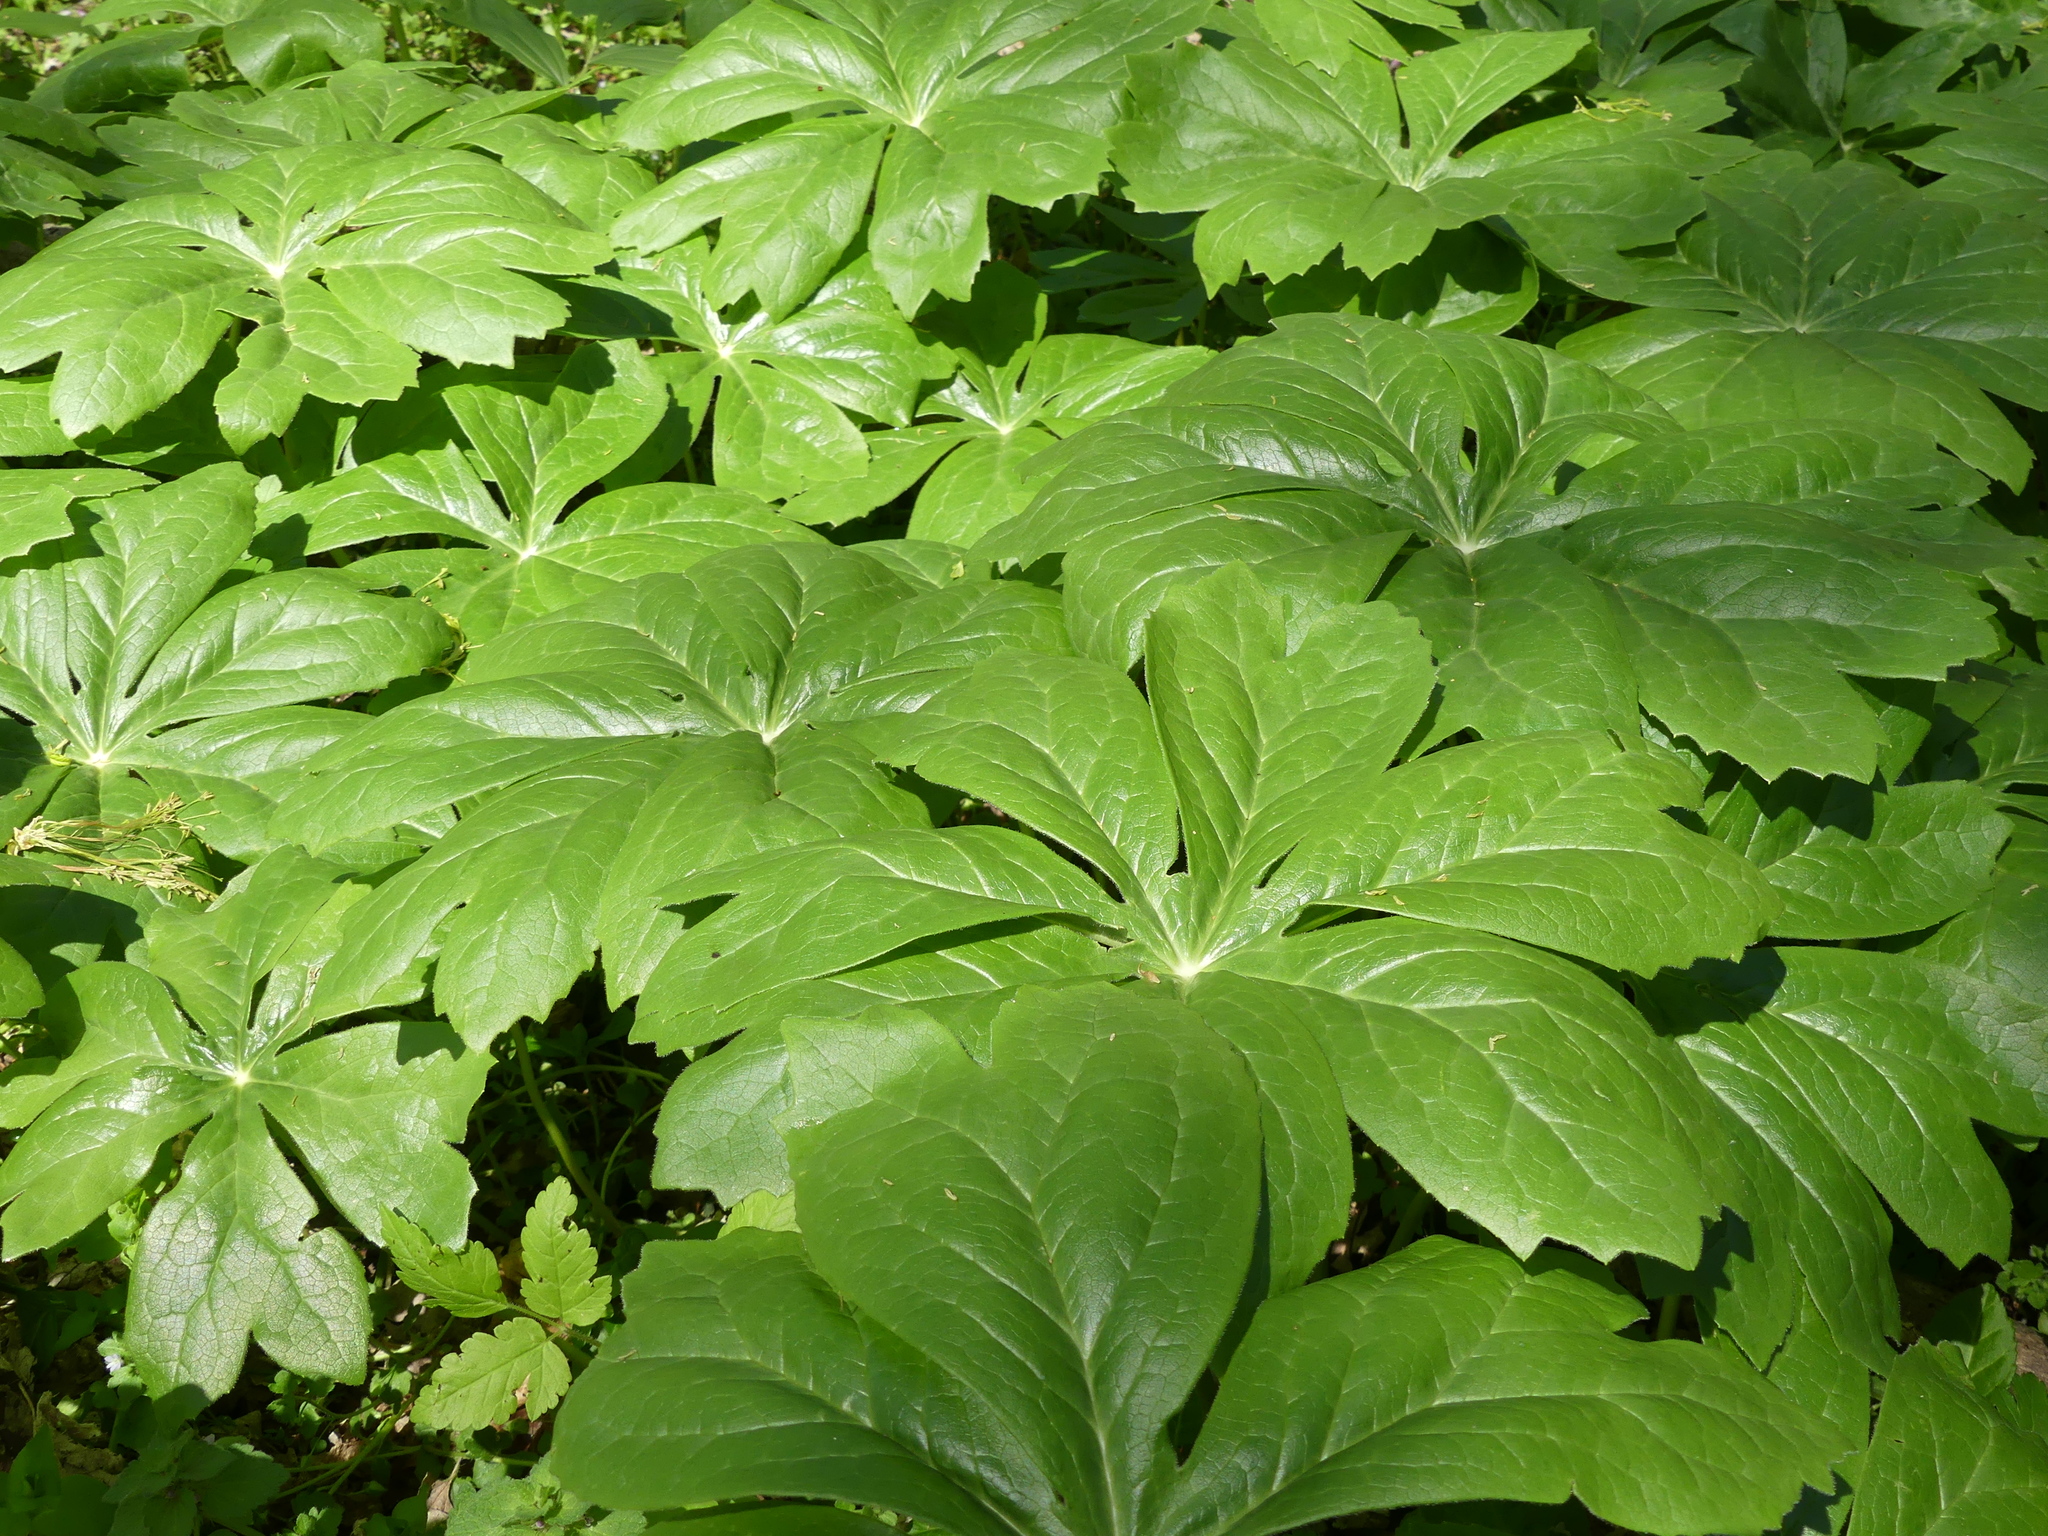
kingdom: Plantae
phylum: Tracheophyta
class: Magnoliopsida
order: Ranunculales
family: Berberidaceae
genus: Podophyllum
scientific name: Podophyllum peltatum
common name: Wild mandrake
